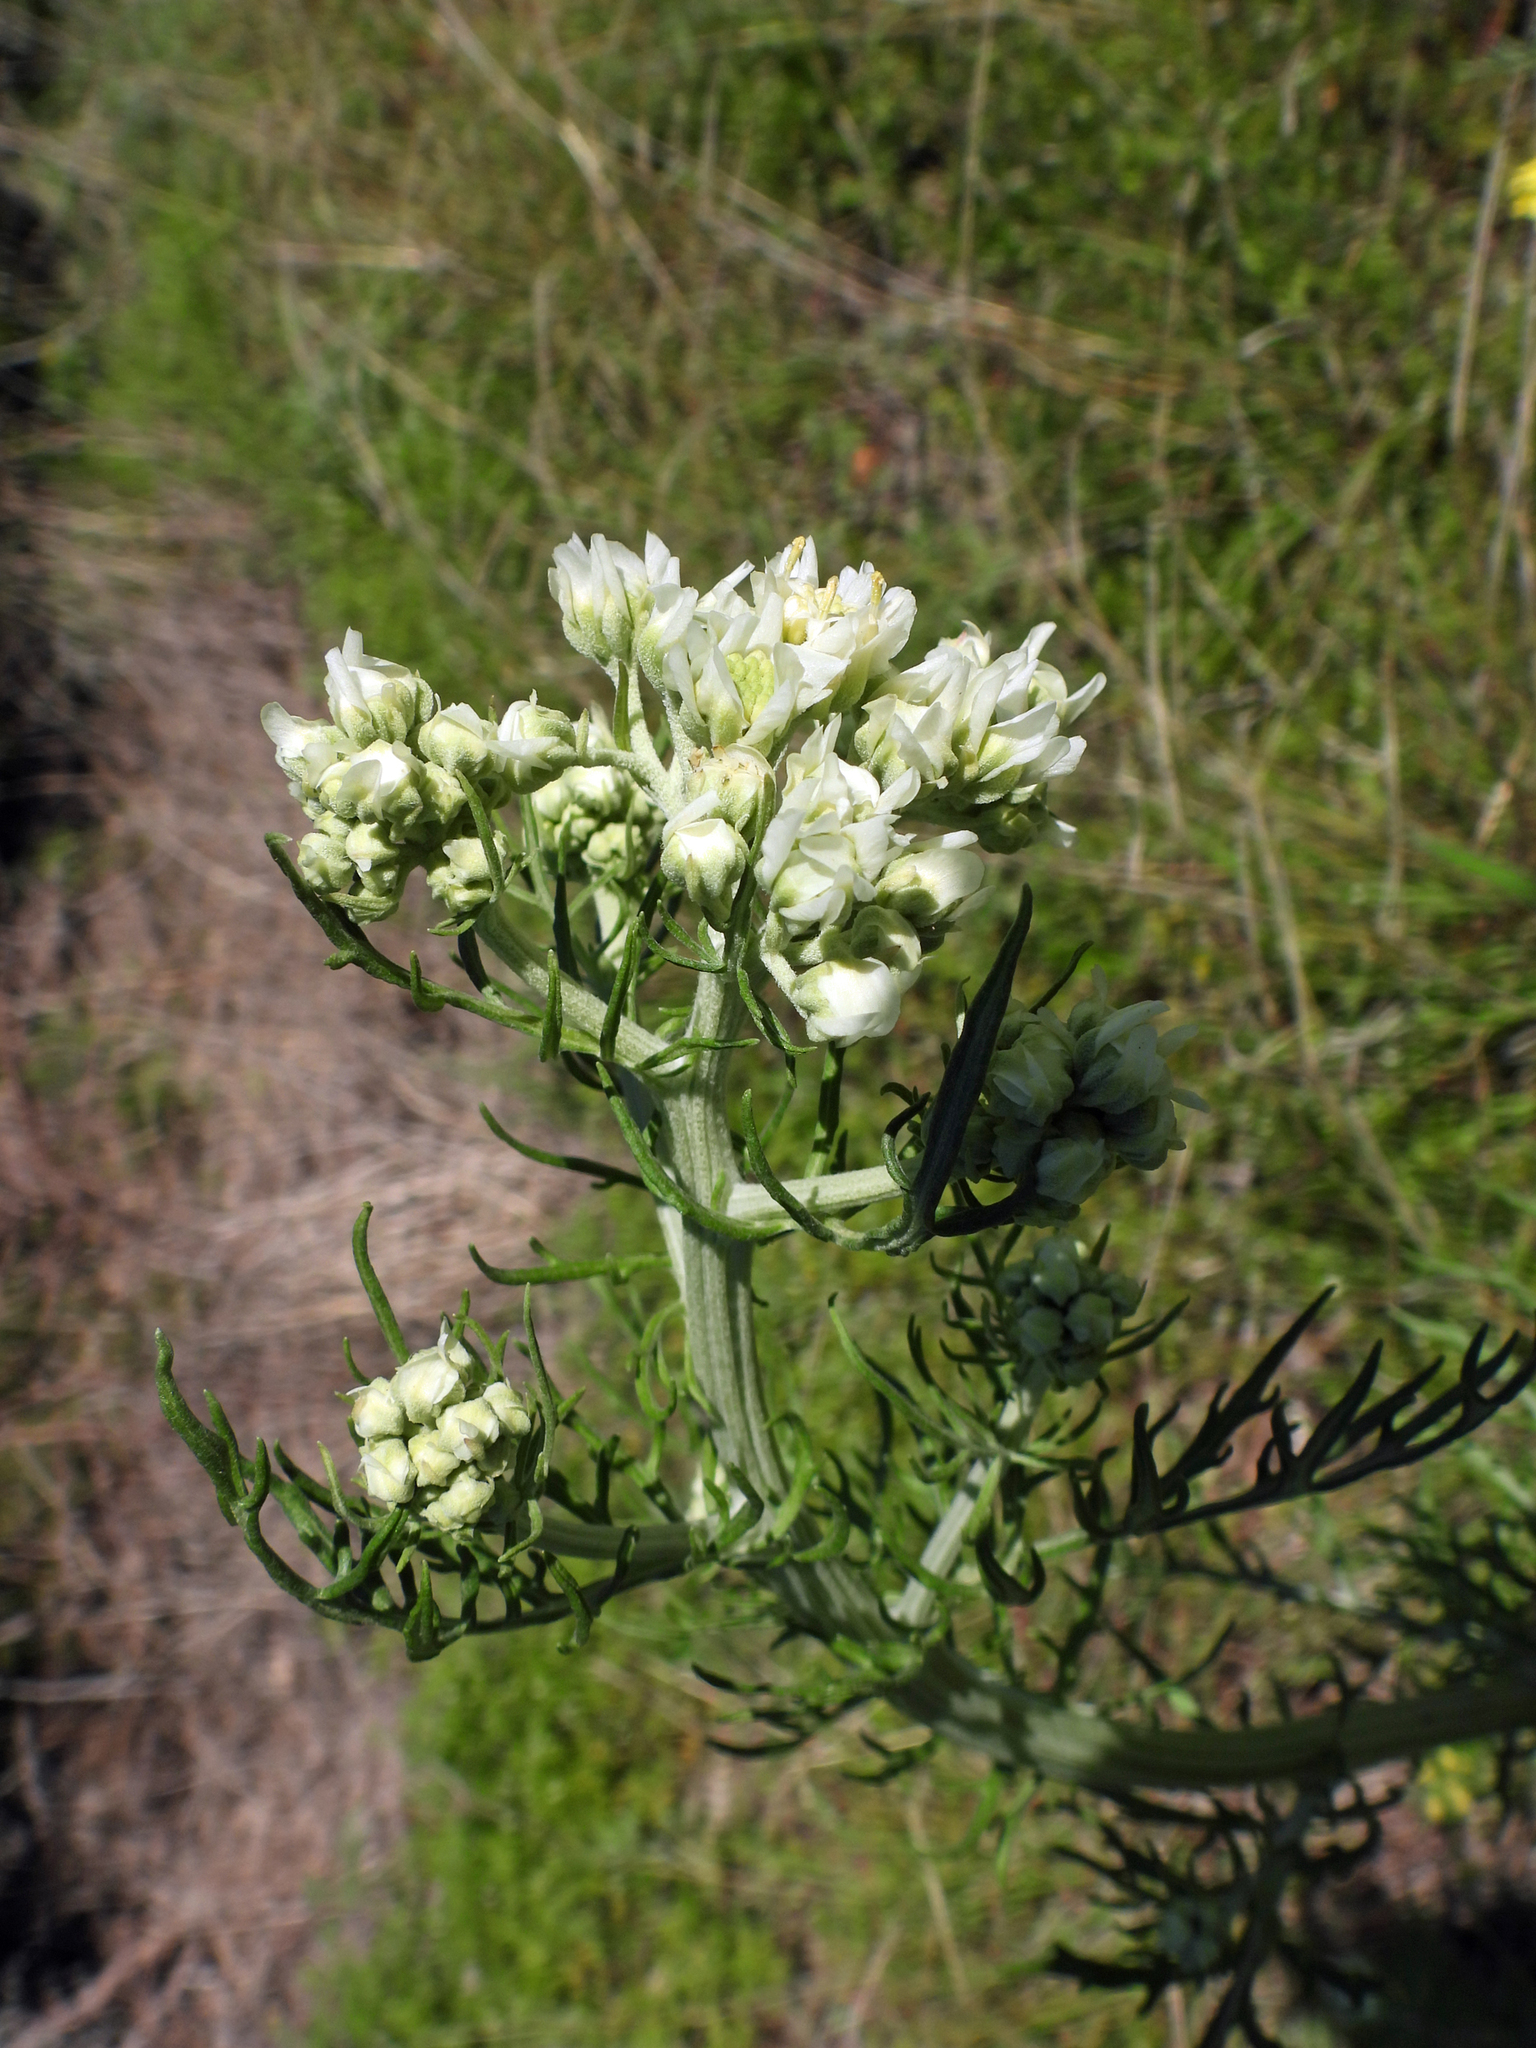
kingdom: Plantae
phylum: Tracheophyta
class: Magnoliopsida
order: Asterales
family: Asteraceae
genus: Hymenopappus
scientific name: Hymenopappus scabiosaeus
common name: Carolina woollywhite
